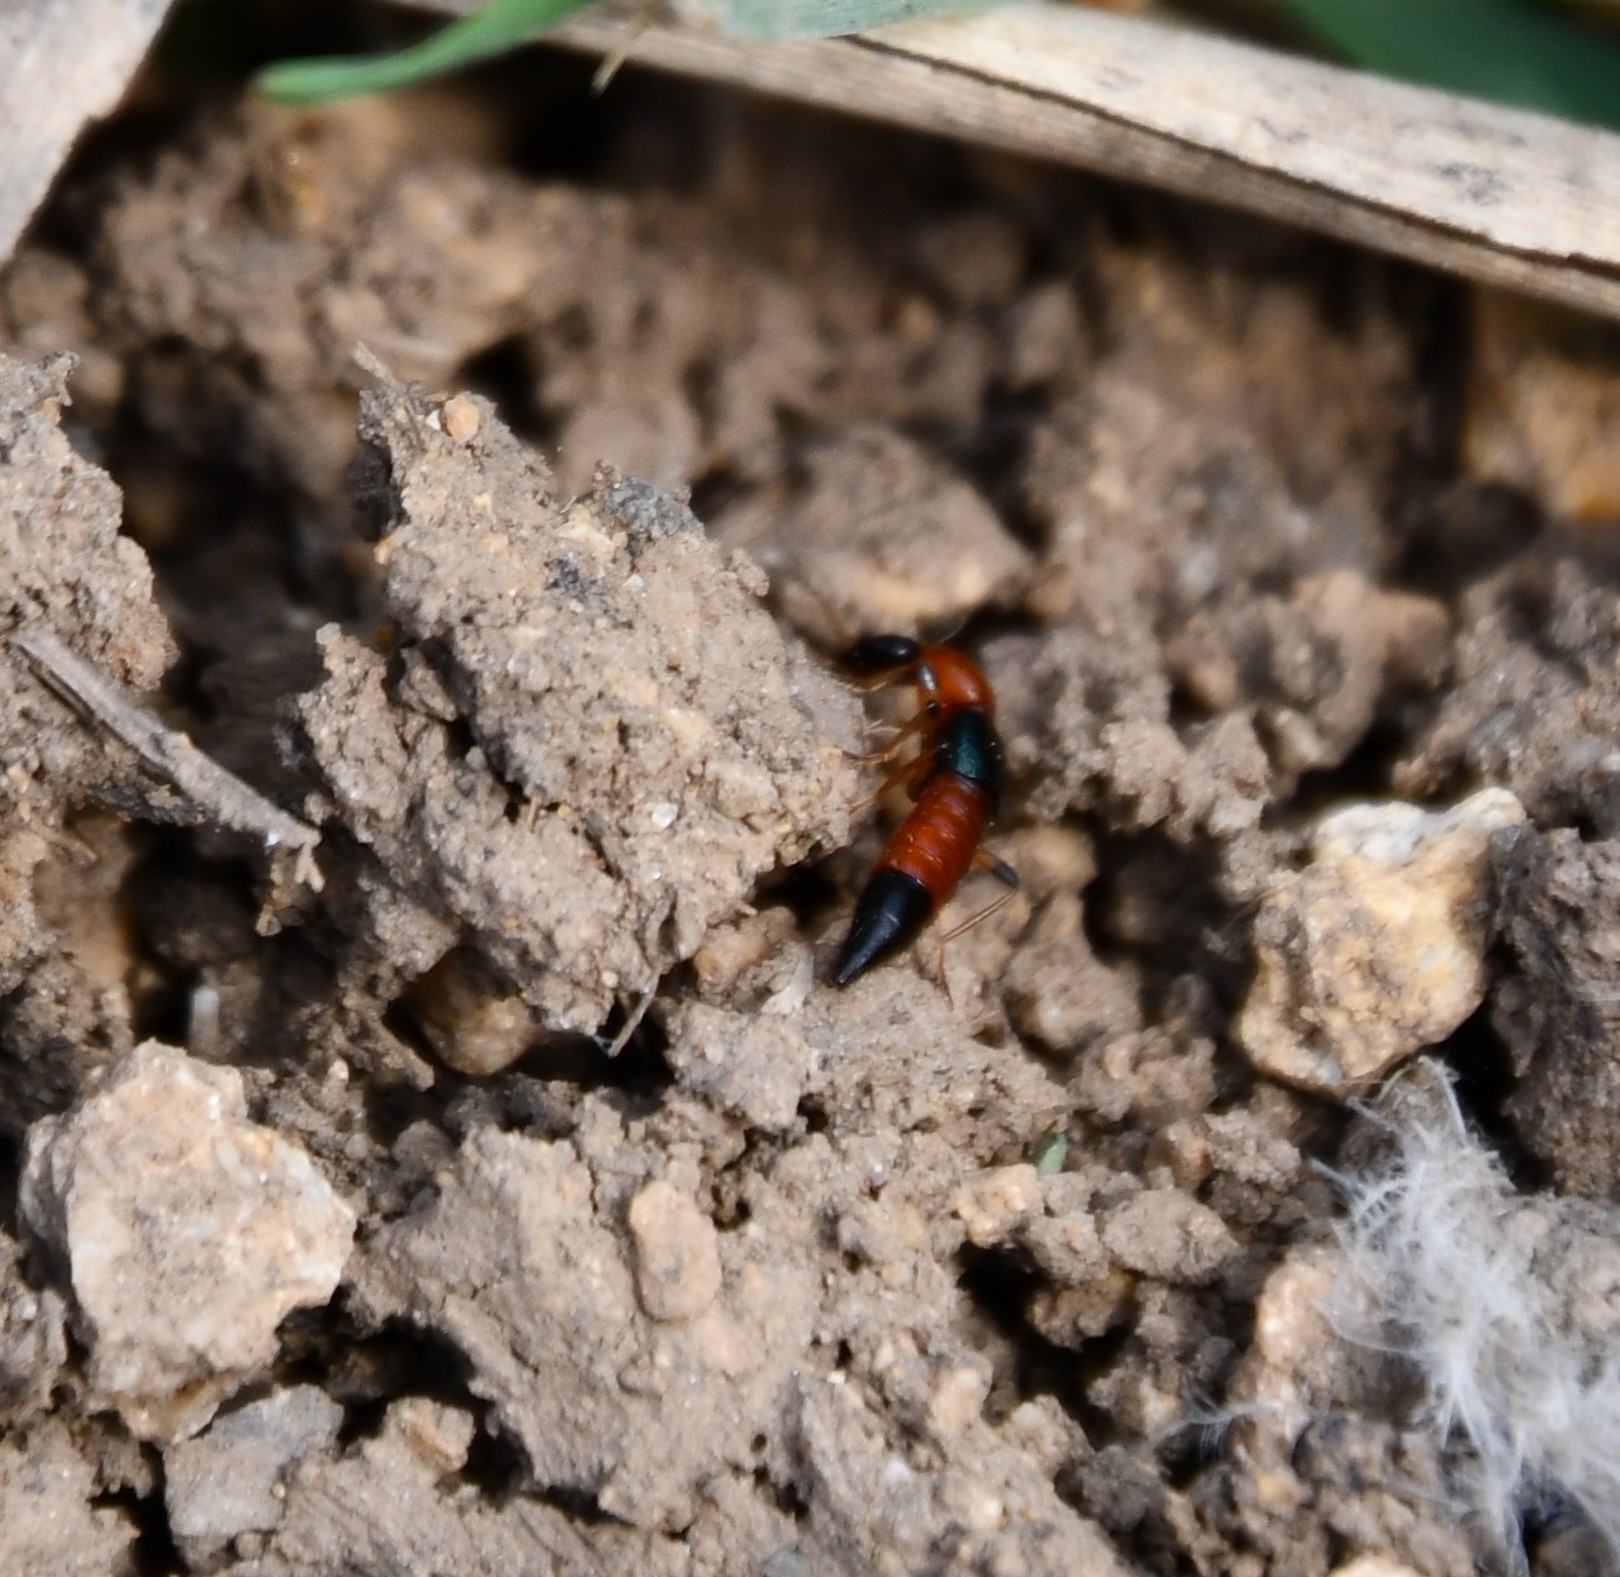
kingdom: Animalia
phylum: Arthropoda
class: Insecta
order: Coleoptera
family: Staphylinidae
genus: Paederus
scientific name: Paederus littoralis
